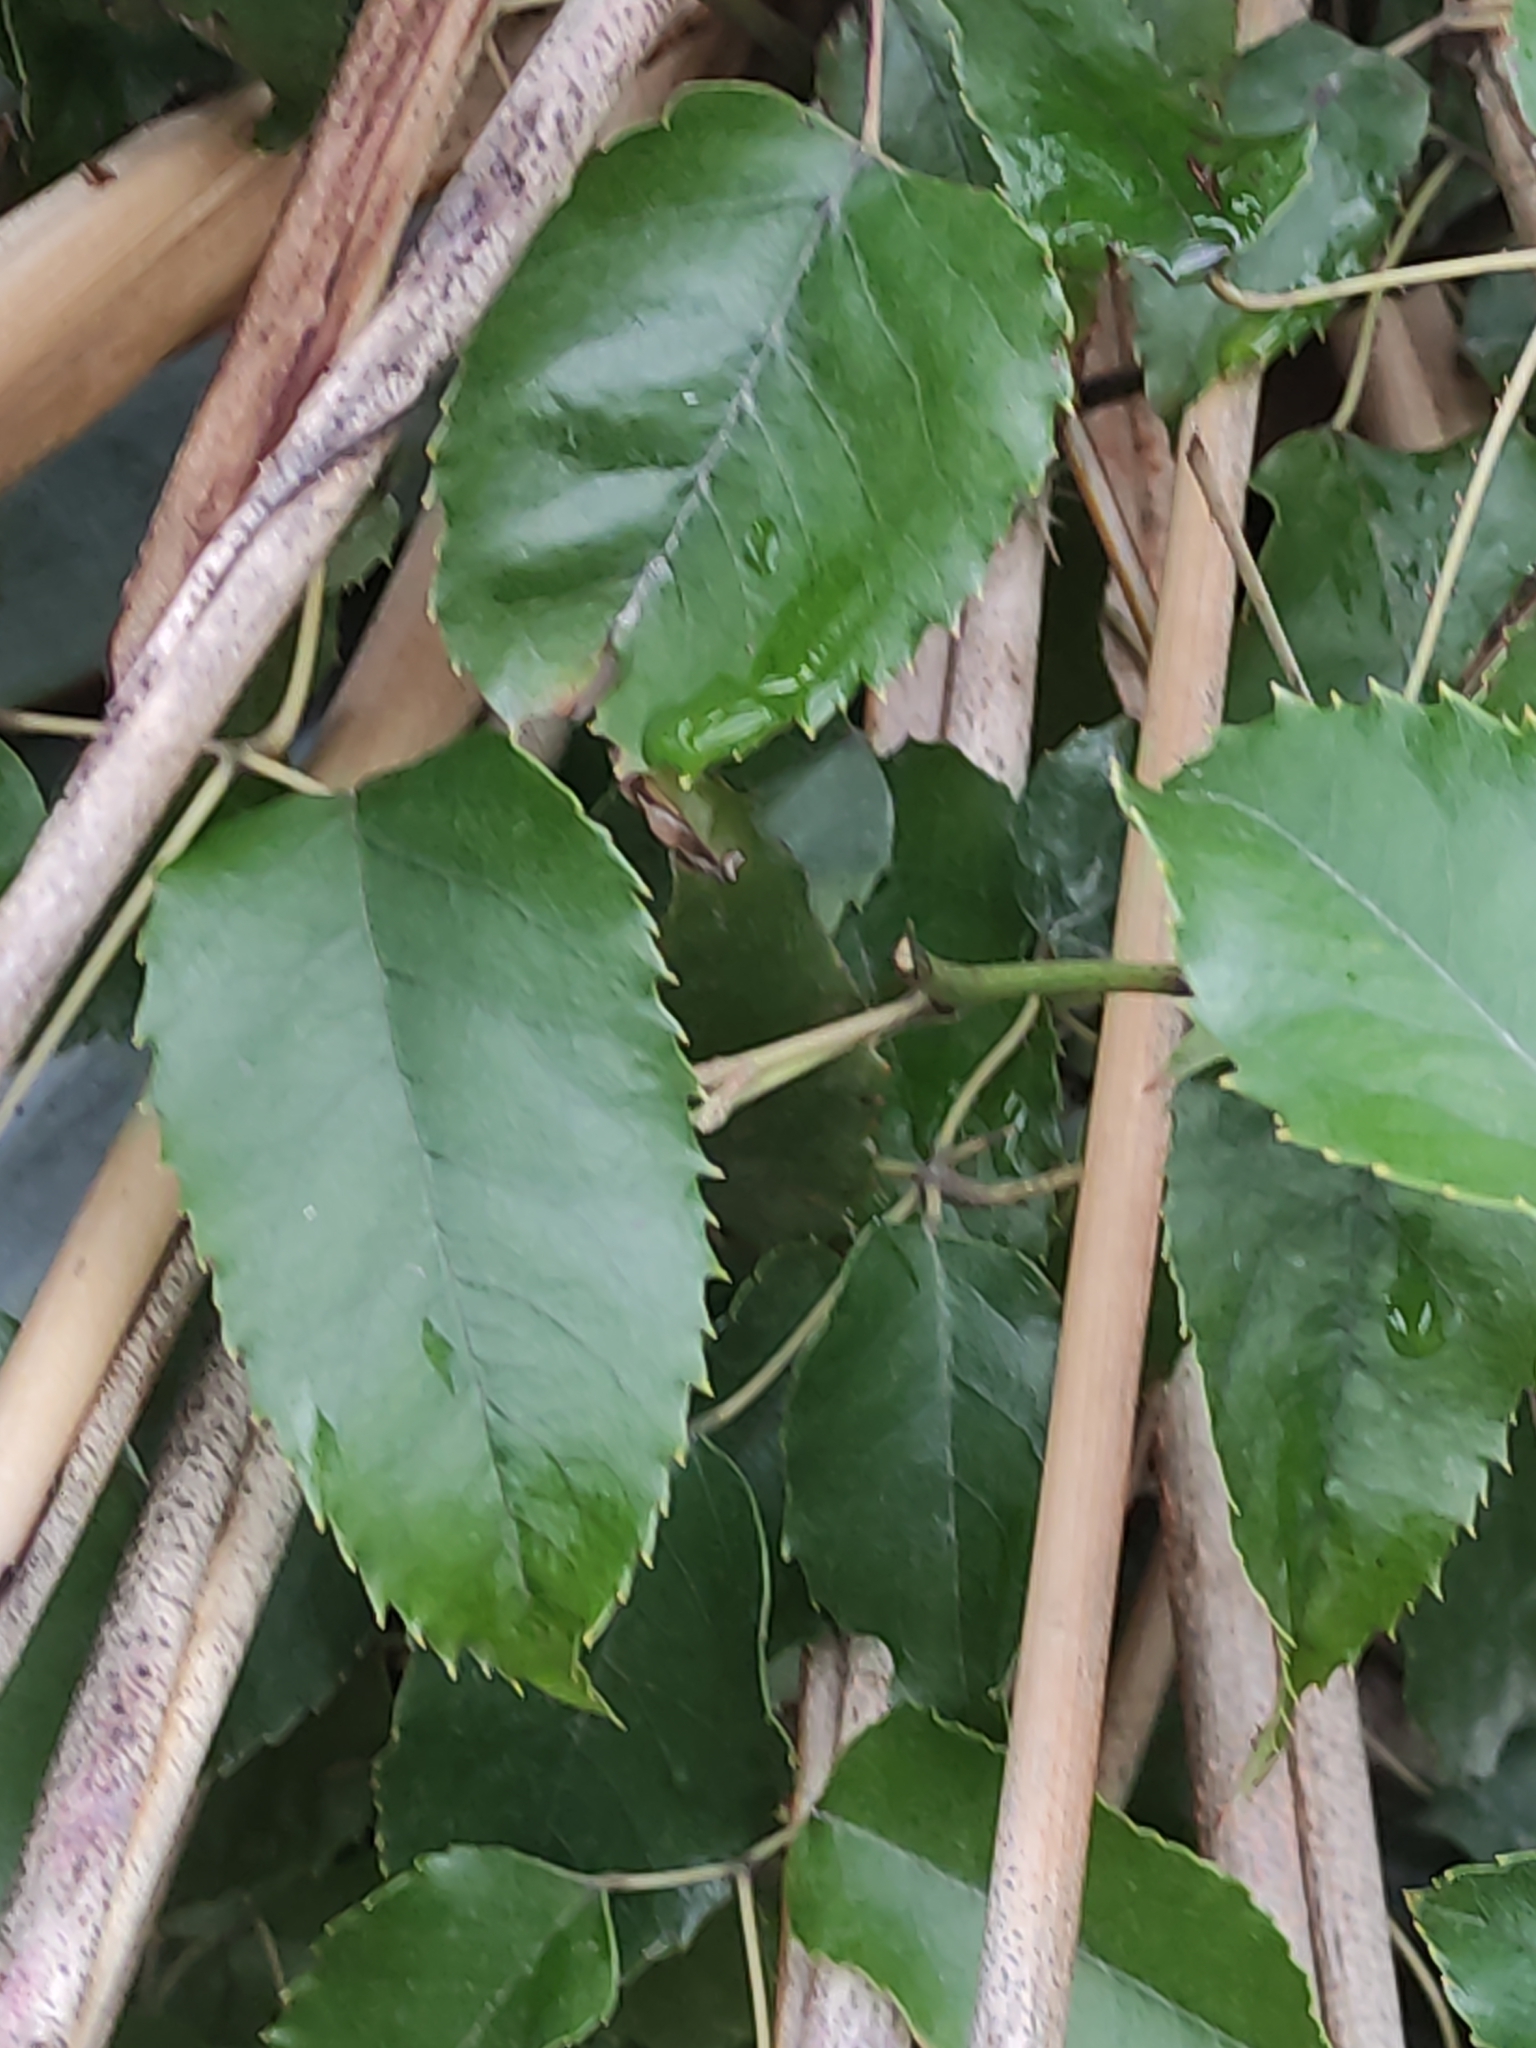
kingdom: Plantae
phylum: Tracheophyta
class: Magnoliopsida
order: Rosales
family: Rosaceae
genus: Rubus
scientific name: Rubus cissoides
